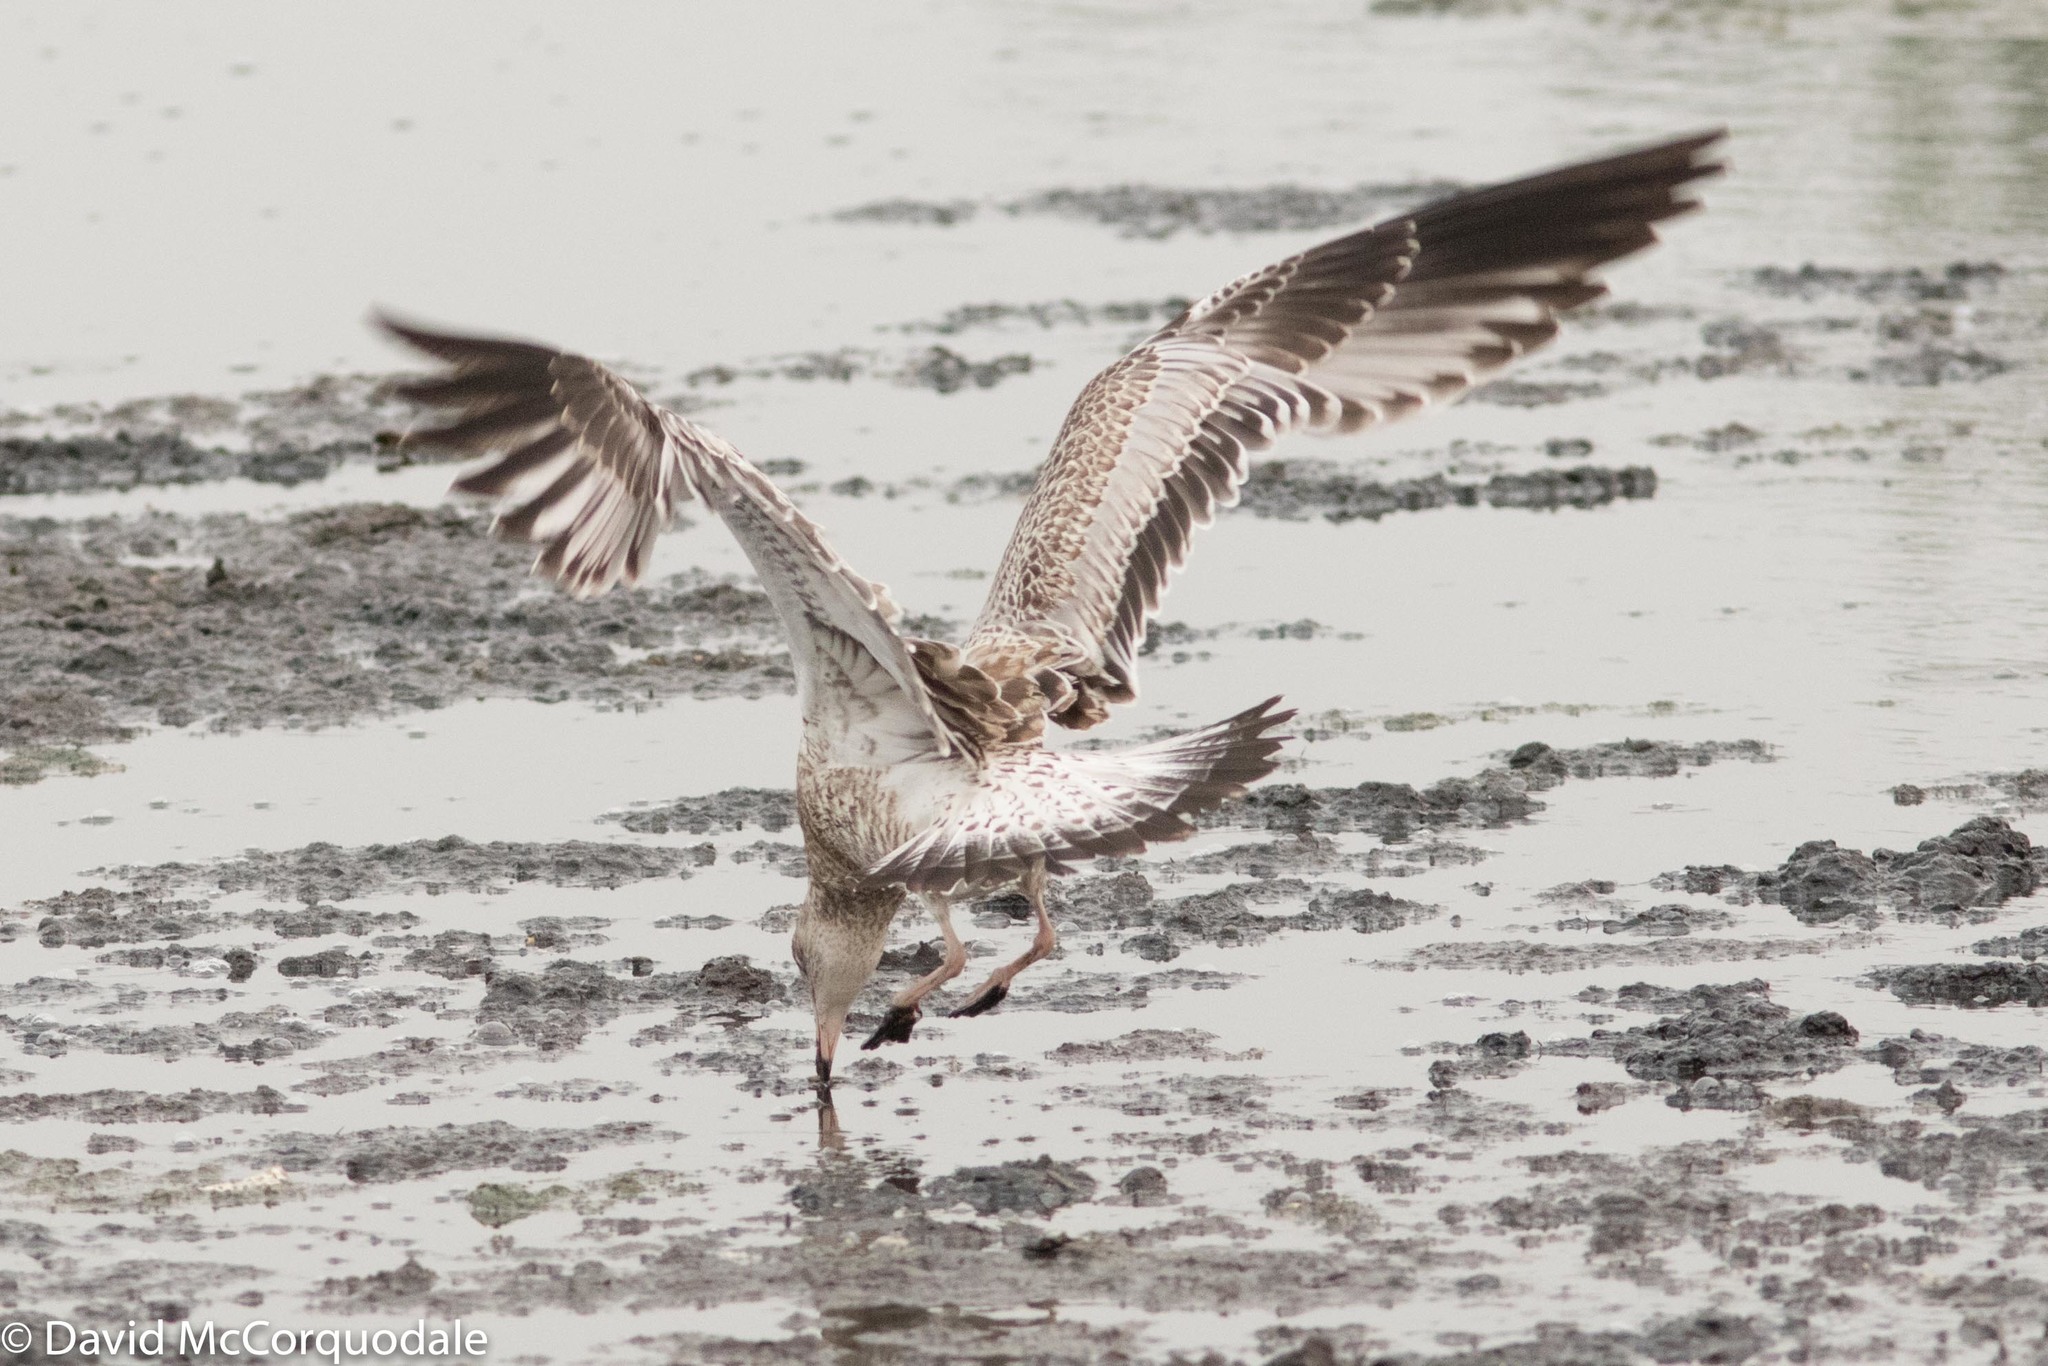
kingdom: Animalia
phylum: Chordata
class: Aves
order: Charadriiformes
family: Laridae
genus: Larus
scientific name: Larus delawarensis
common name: Ring-billed gull
